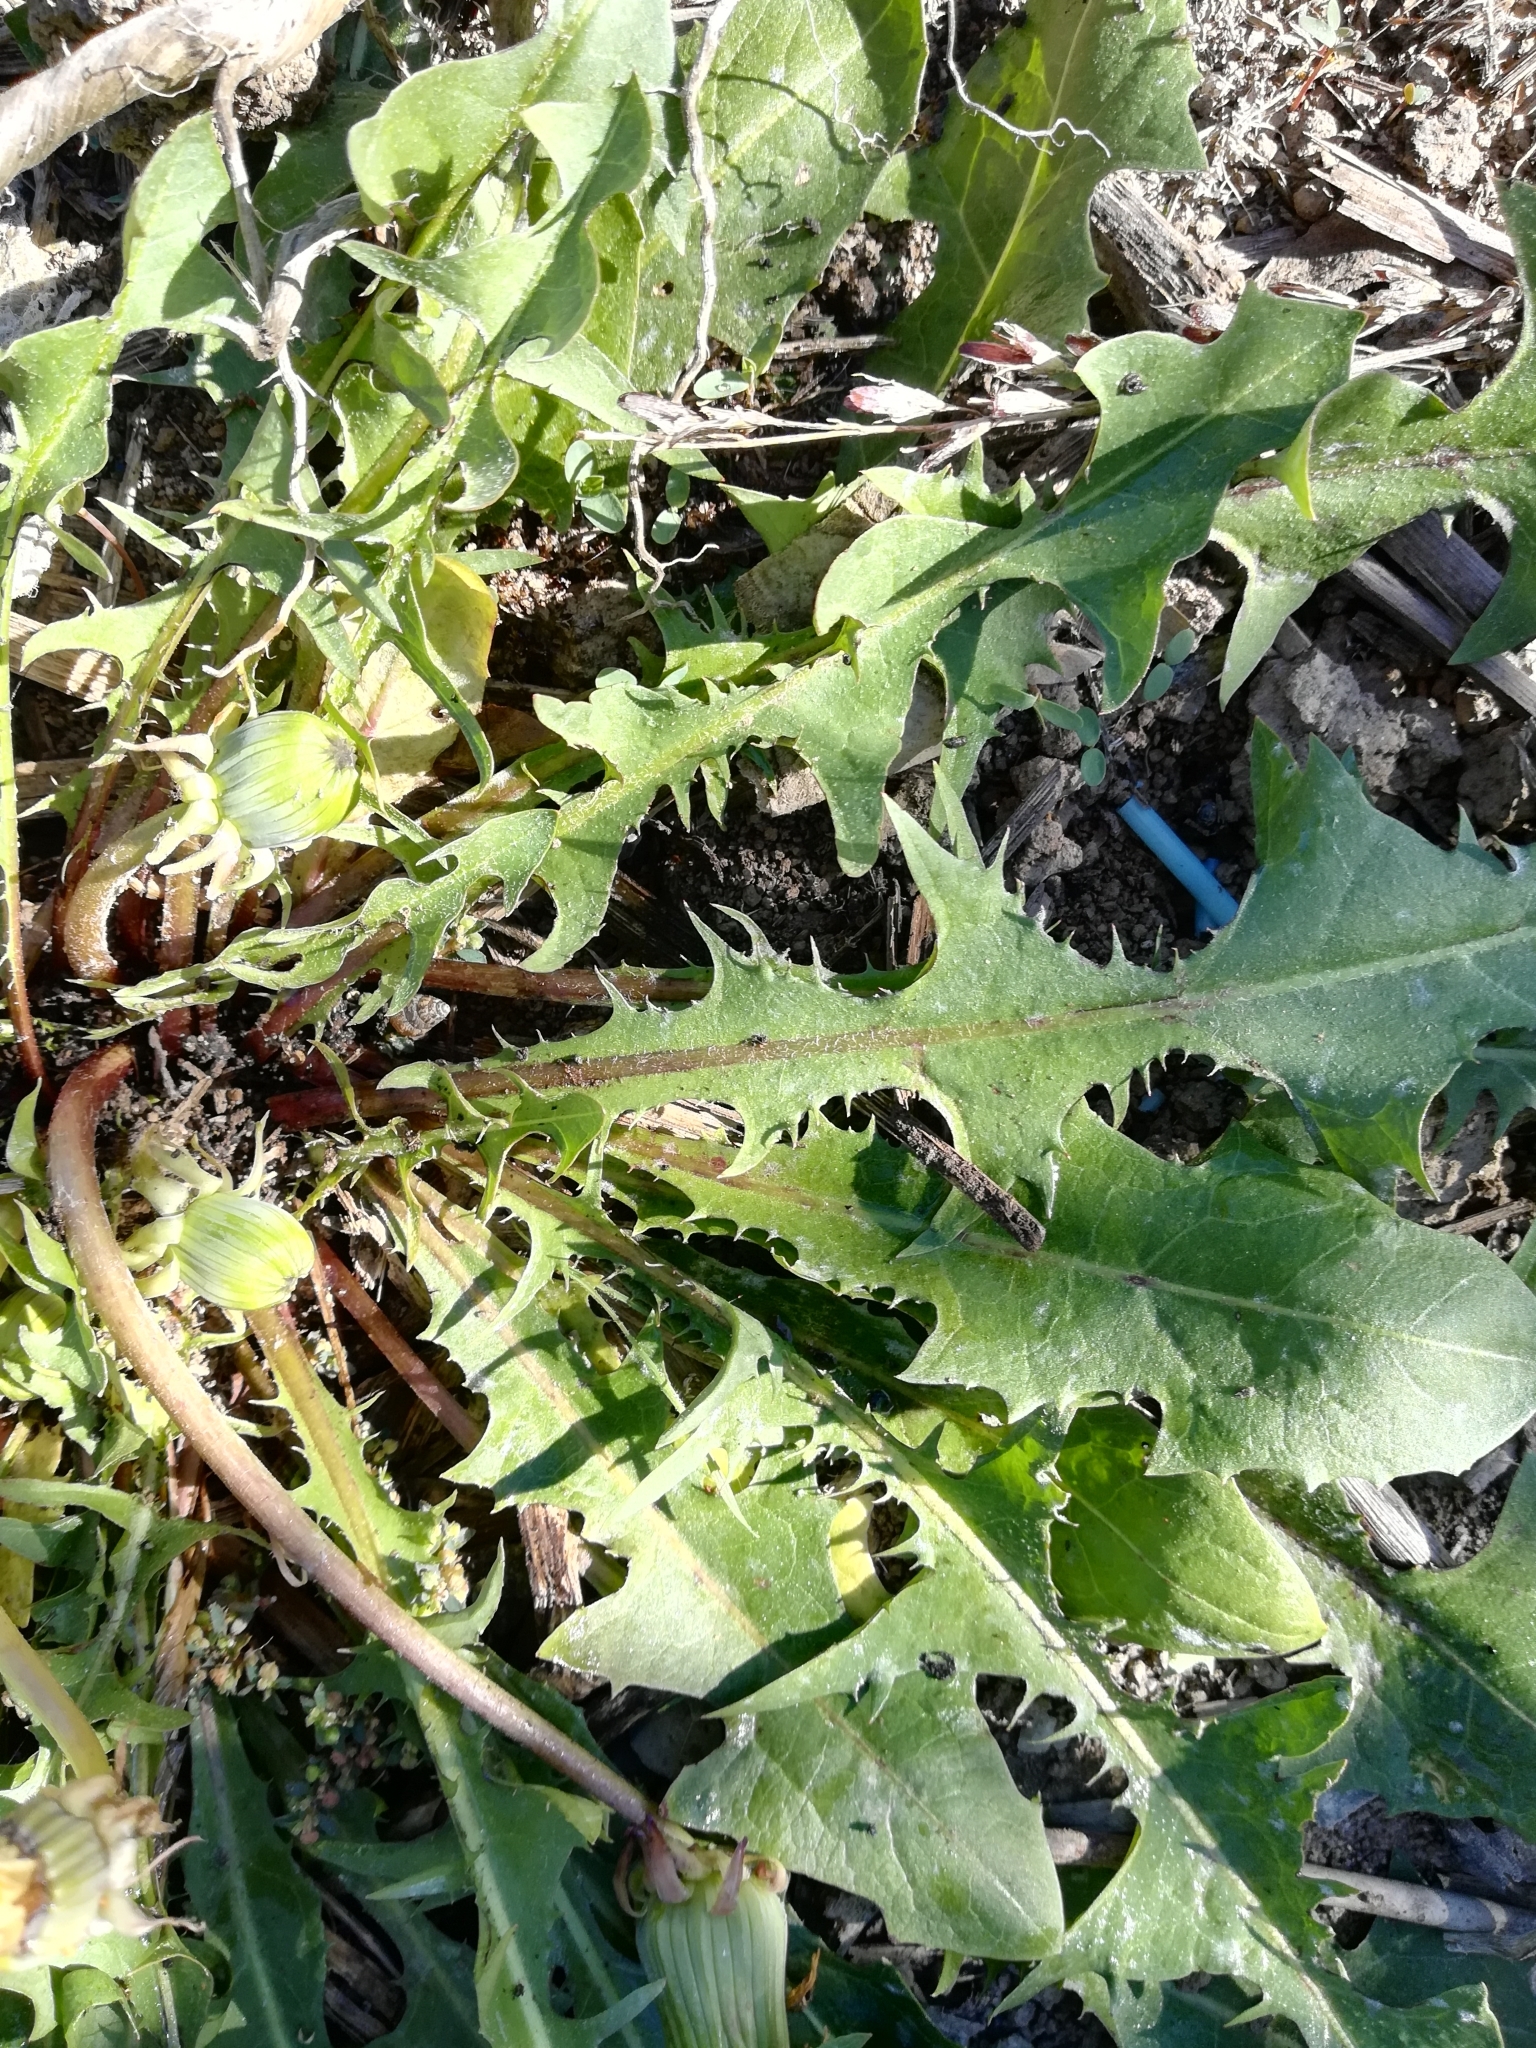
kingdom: Plantae
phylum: Tracheophyta
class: Magnoliopsida
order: Asterales
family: Asteraceae
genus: Taraxacum
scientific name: Taraxacum officinale
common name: Common dandelion
